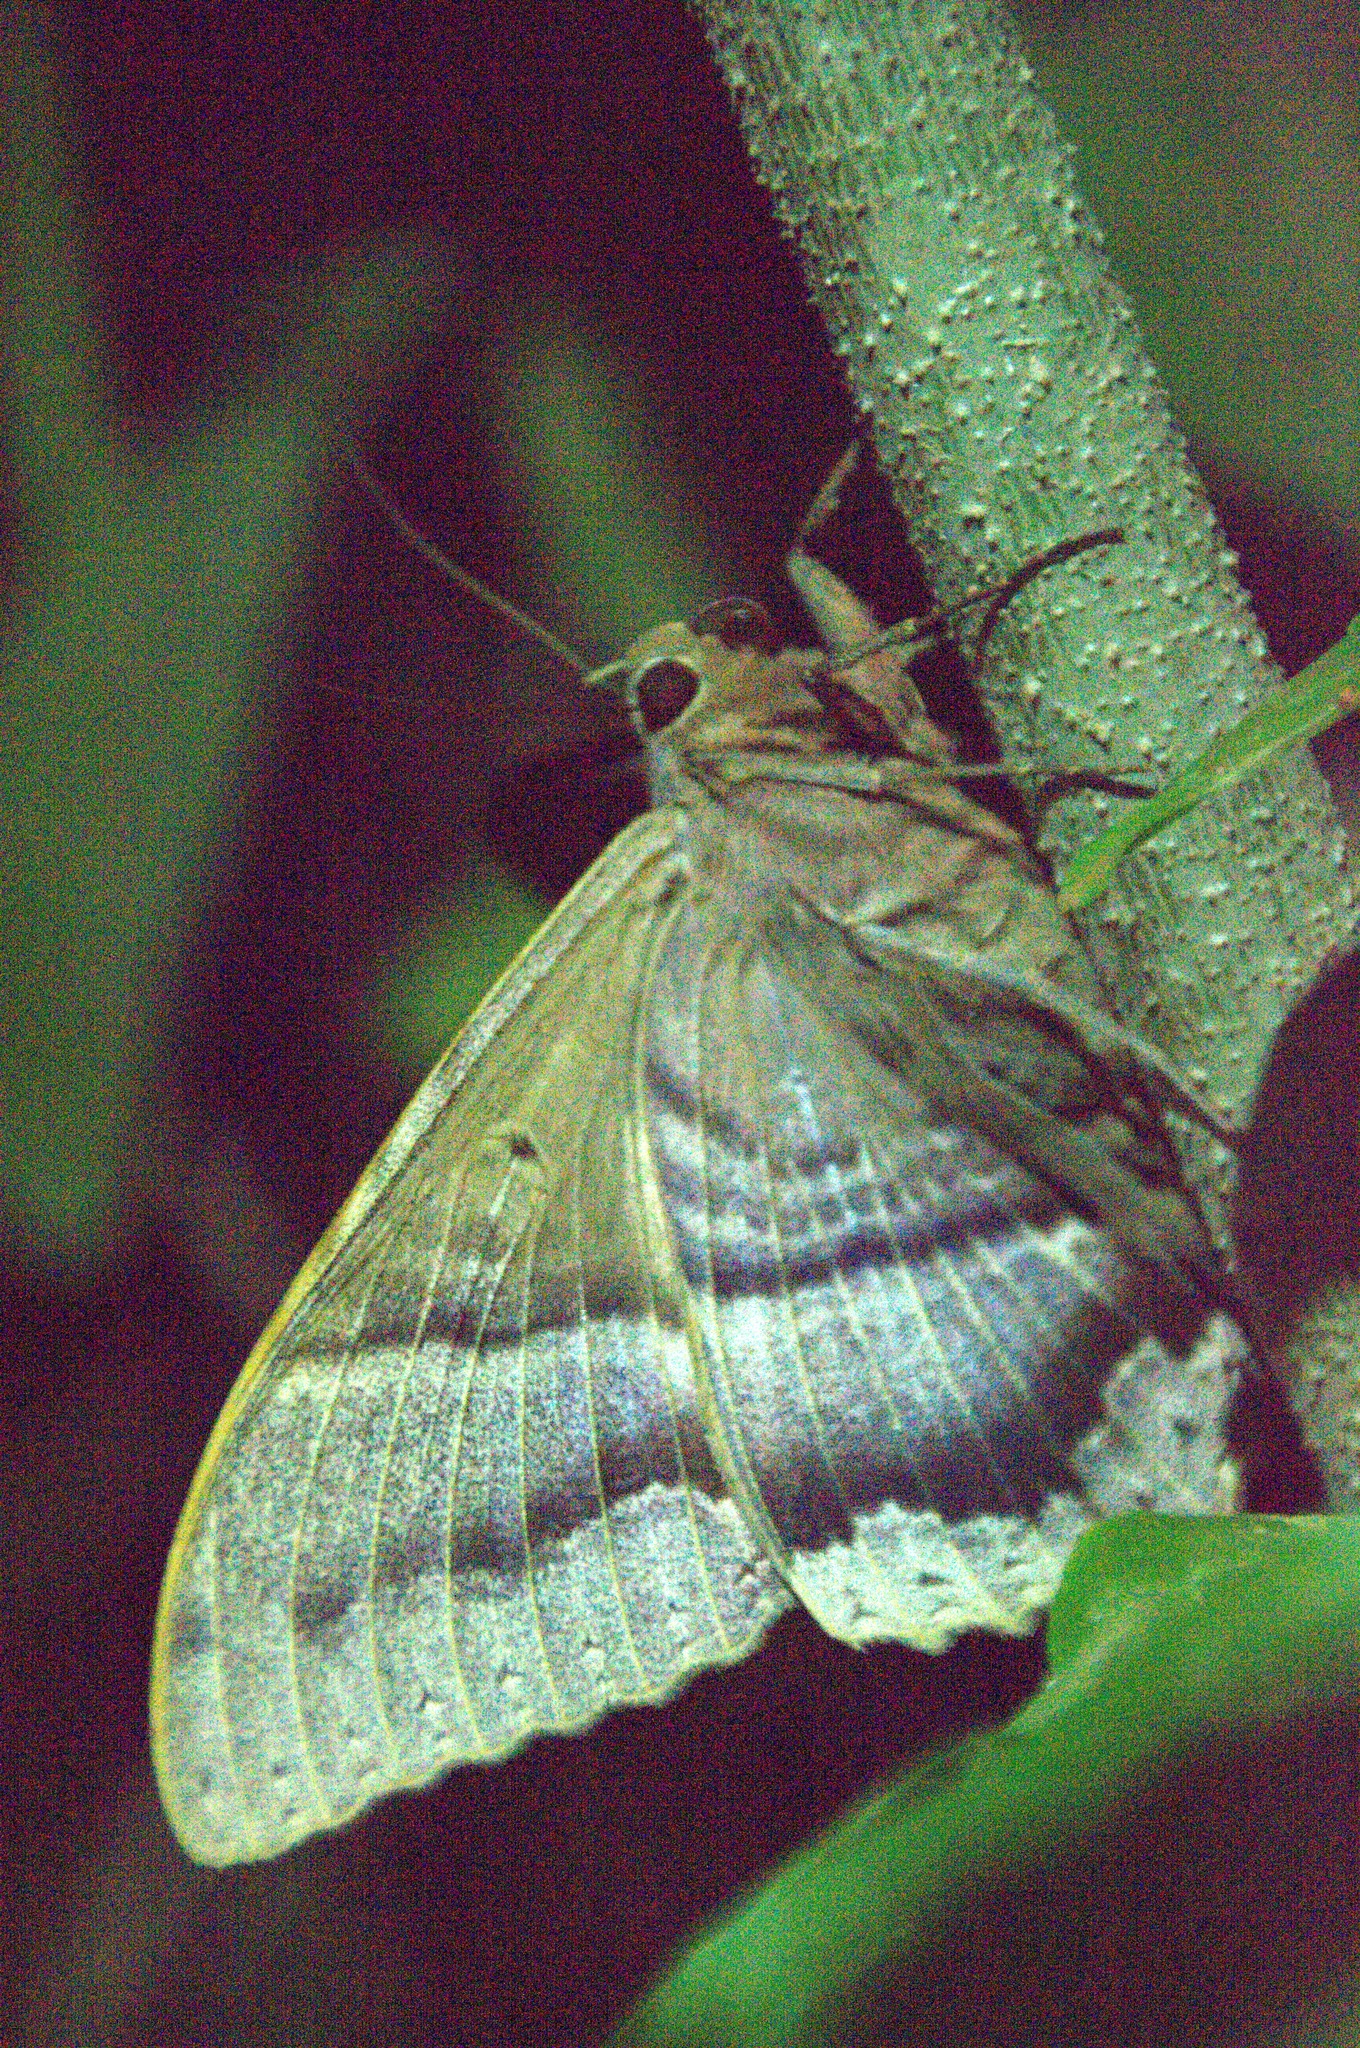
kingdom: Animalia
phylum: Arthropoda
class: Insecta
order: Lepidoptera
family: Erebidae
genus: Ascalapha
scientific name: Ascalapha odorata
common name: Black witch
